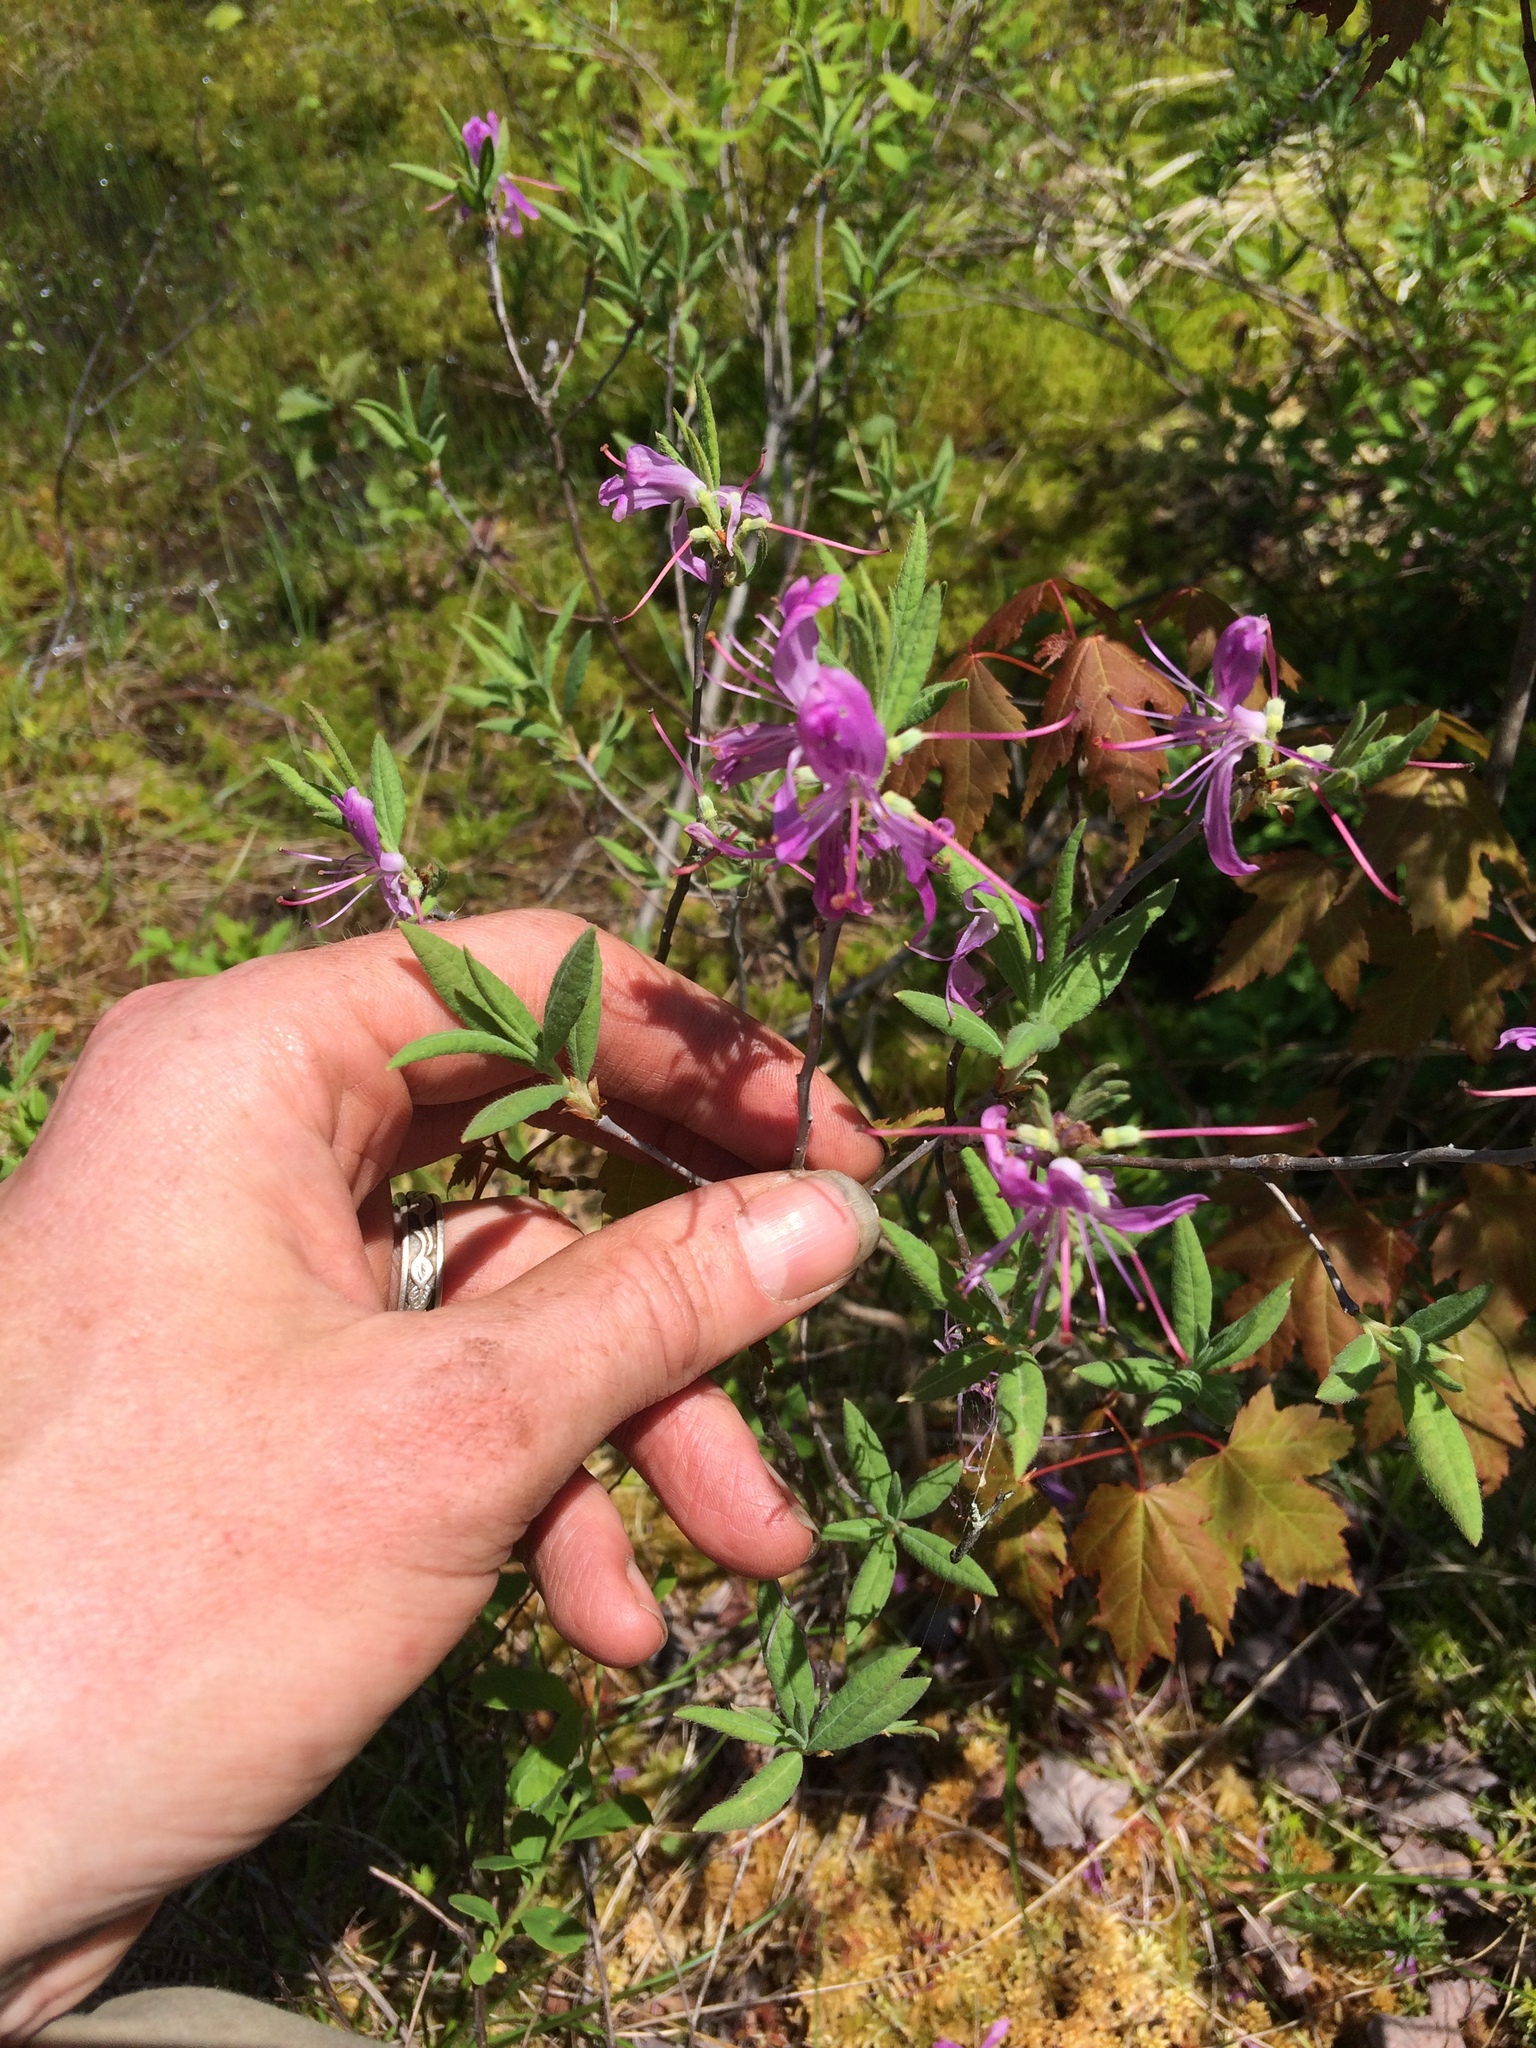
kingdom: Plantae
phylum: Tracheophyta
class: Magnoliopsida
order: Ericales
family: Ericaceae
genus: Rhododendron
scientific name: Rhododendron canadense
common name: Rhodora
